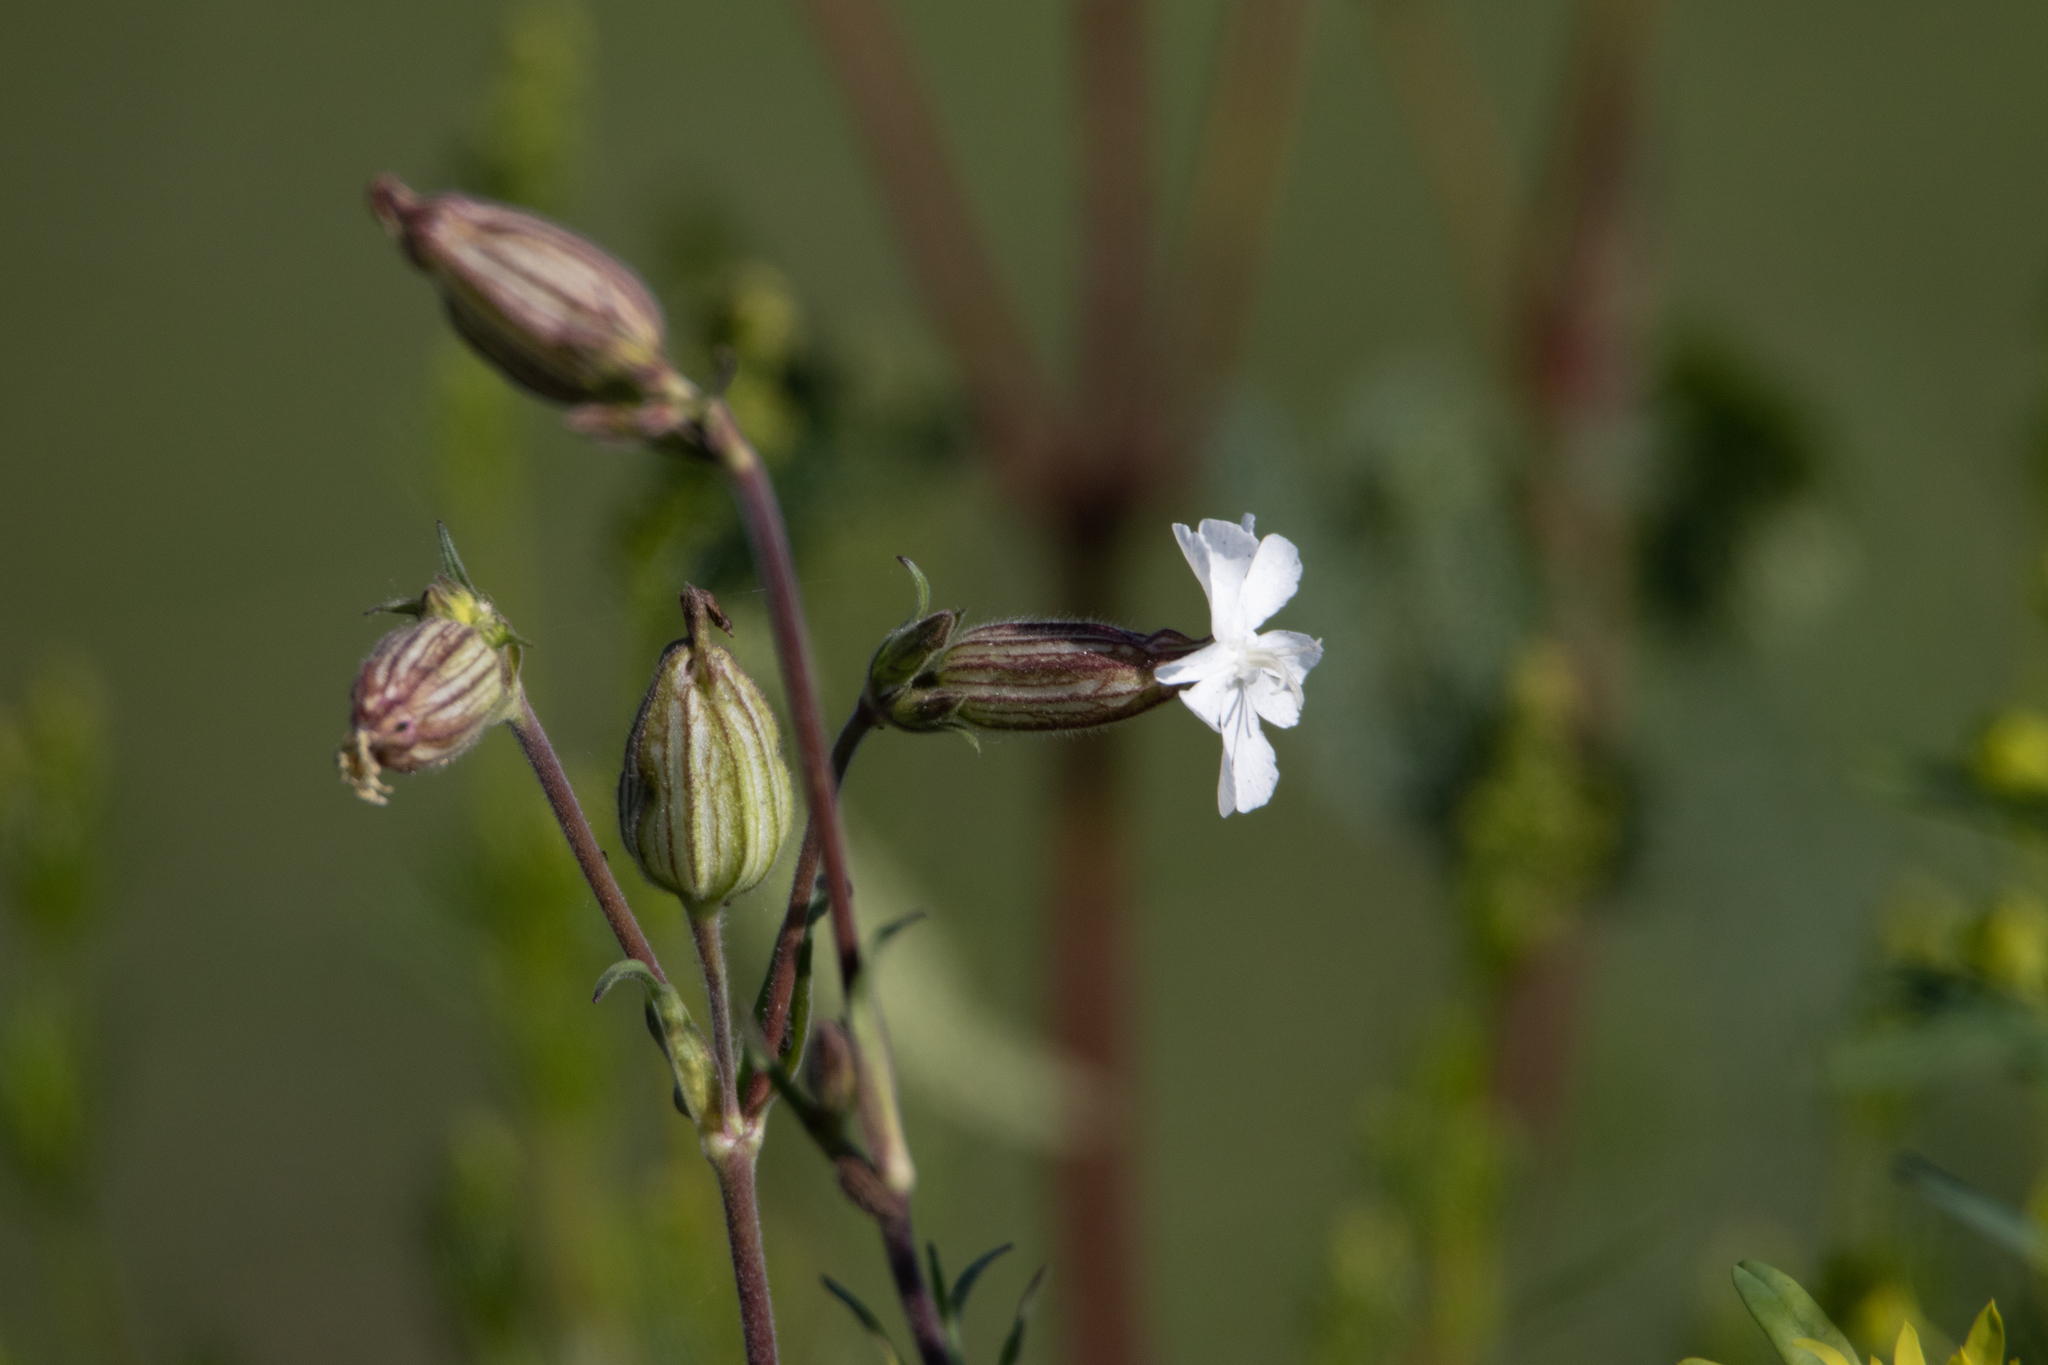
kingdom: Plantae
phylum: Tracheophyta
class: Magnoliopsida
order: Caryophyllales
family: Caryophyllaceae
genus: Silene
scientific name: Silene latifolia
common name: White campion
